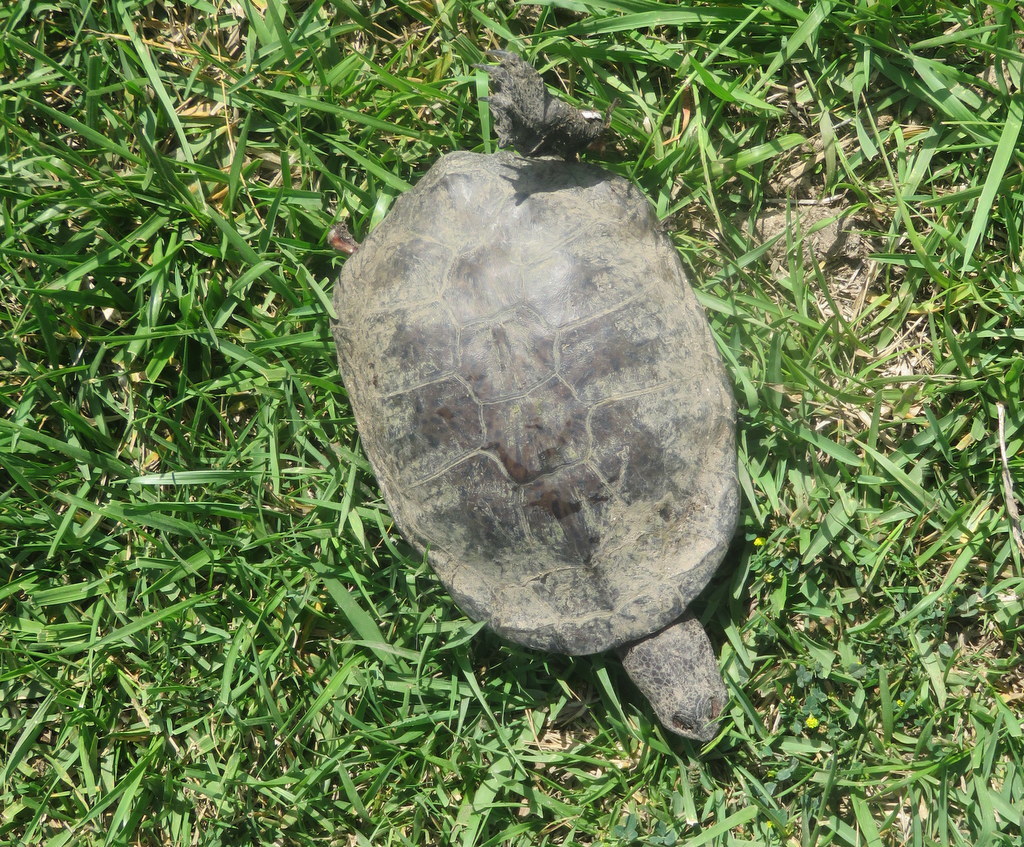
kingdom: Animalia
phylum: Chordata
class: Testudines
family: Chelidae
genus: Hydromedusa
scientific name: Hydromedusa tectifera
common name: Argentine snake-necked turtle
